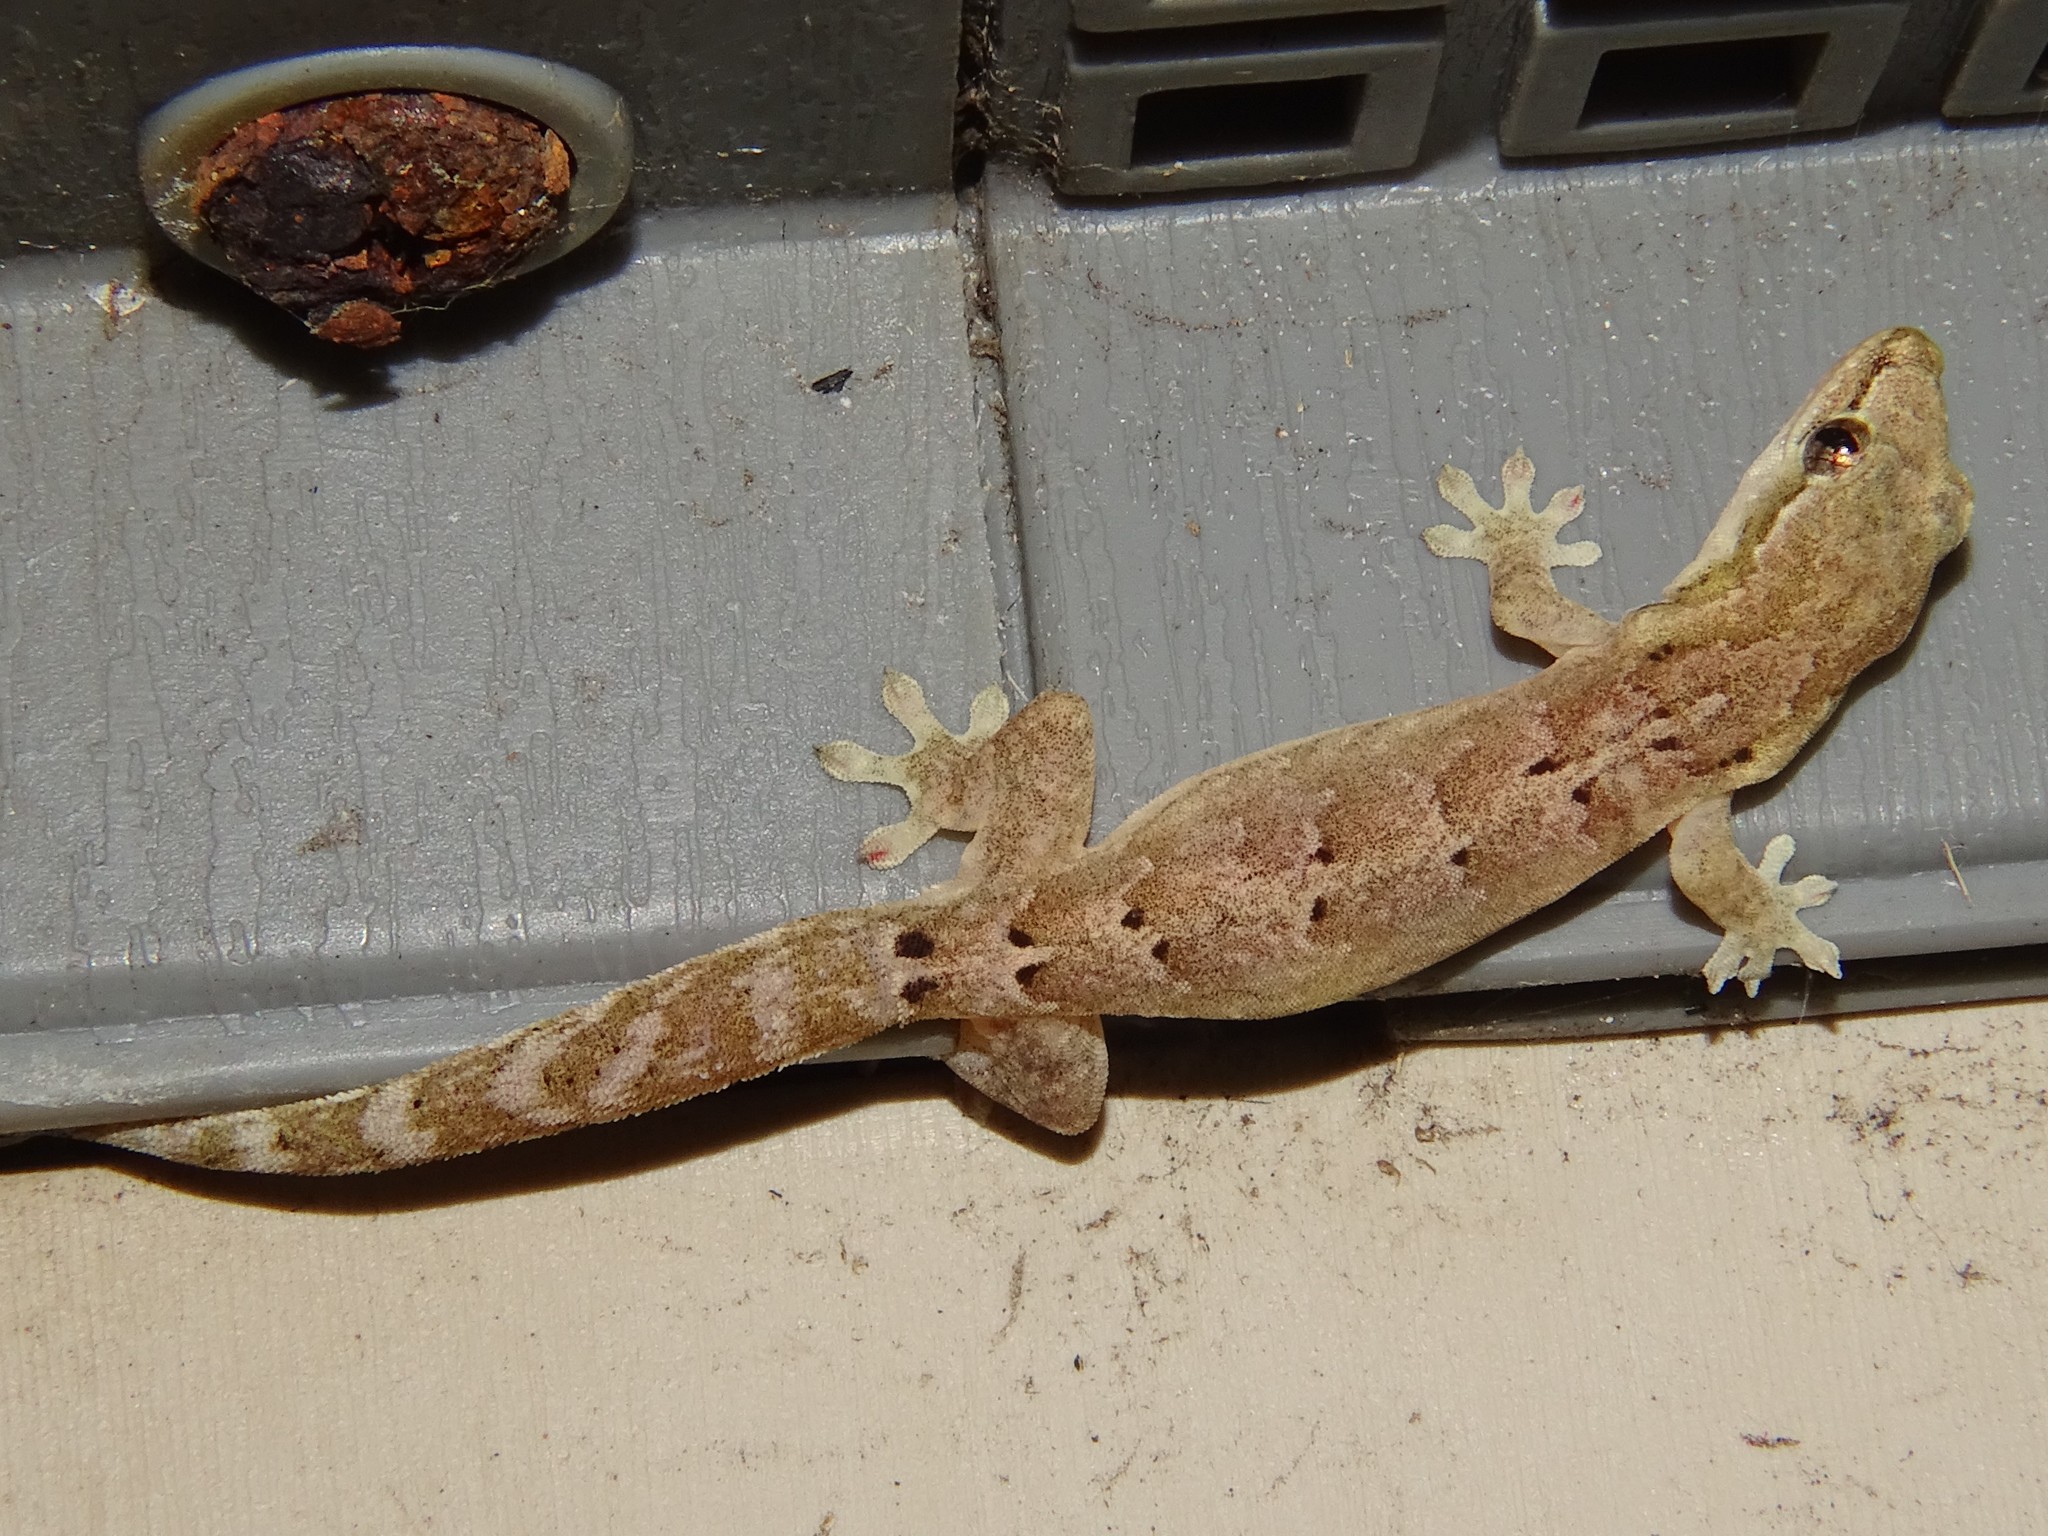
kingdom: Animalia
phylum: Chordata
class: Squamata
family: Gekkonidae
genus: Lepidodactylus
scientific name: Lepidodactylus lugubris
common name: Mourning gecko
